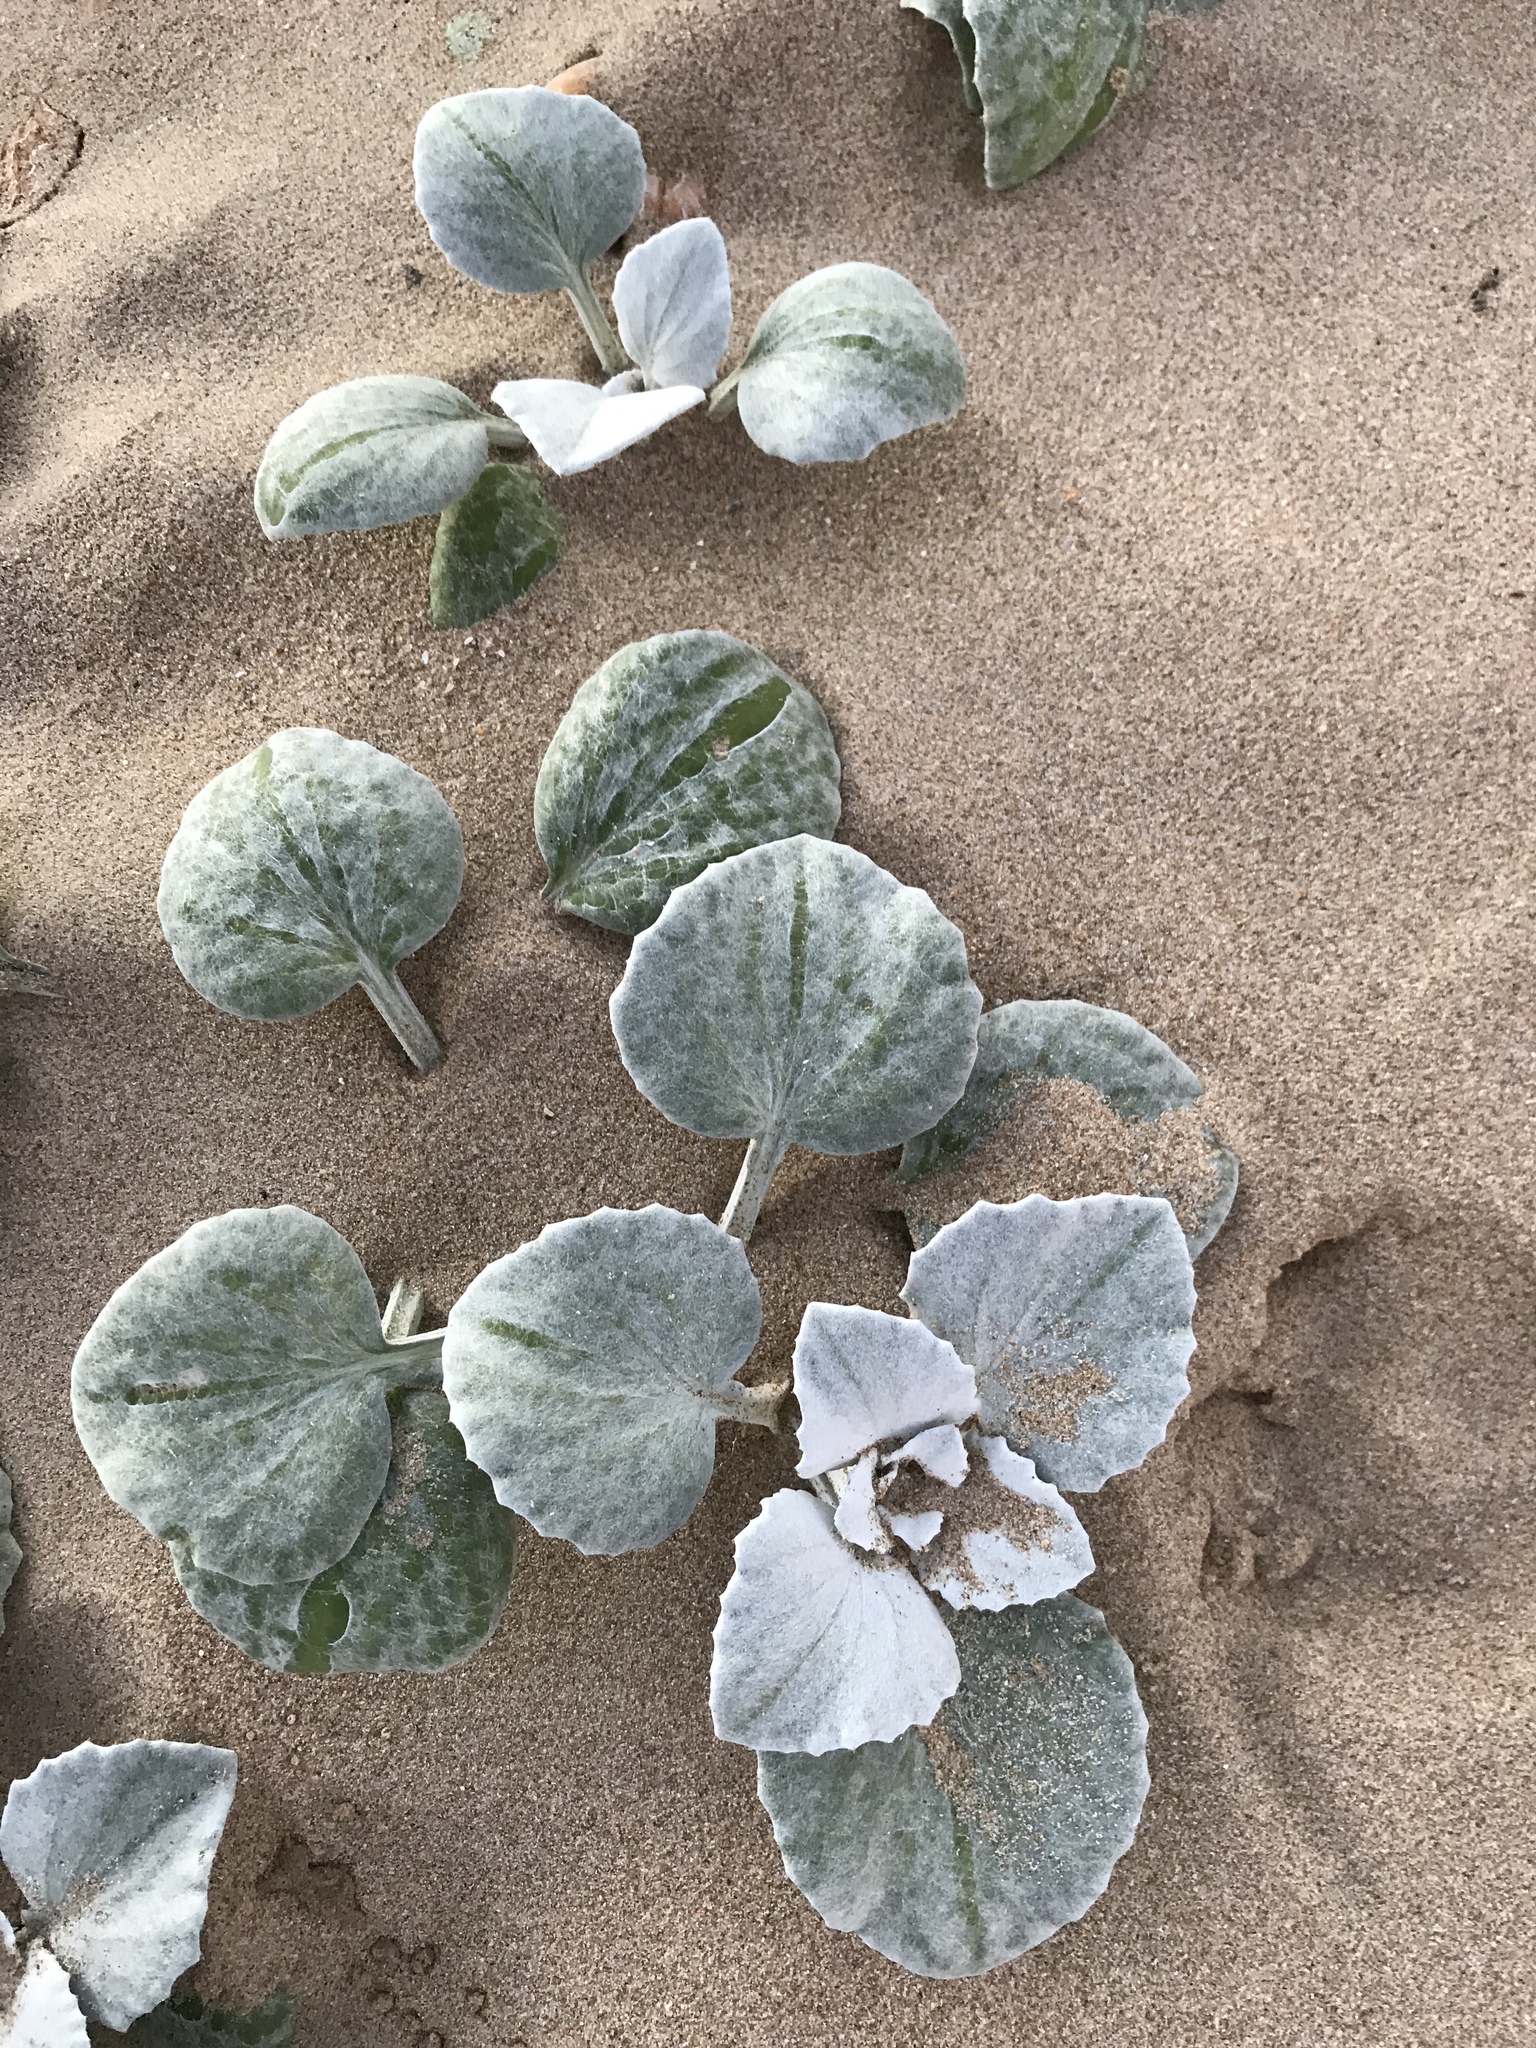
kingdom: Plantae
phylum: Tracheophyta
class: Magnoliopsida
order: Asterales
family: Asteraceae
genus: Arctotheca
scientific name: Arctotheca populifolia
